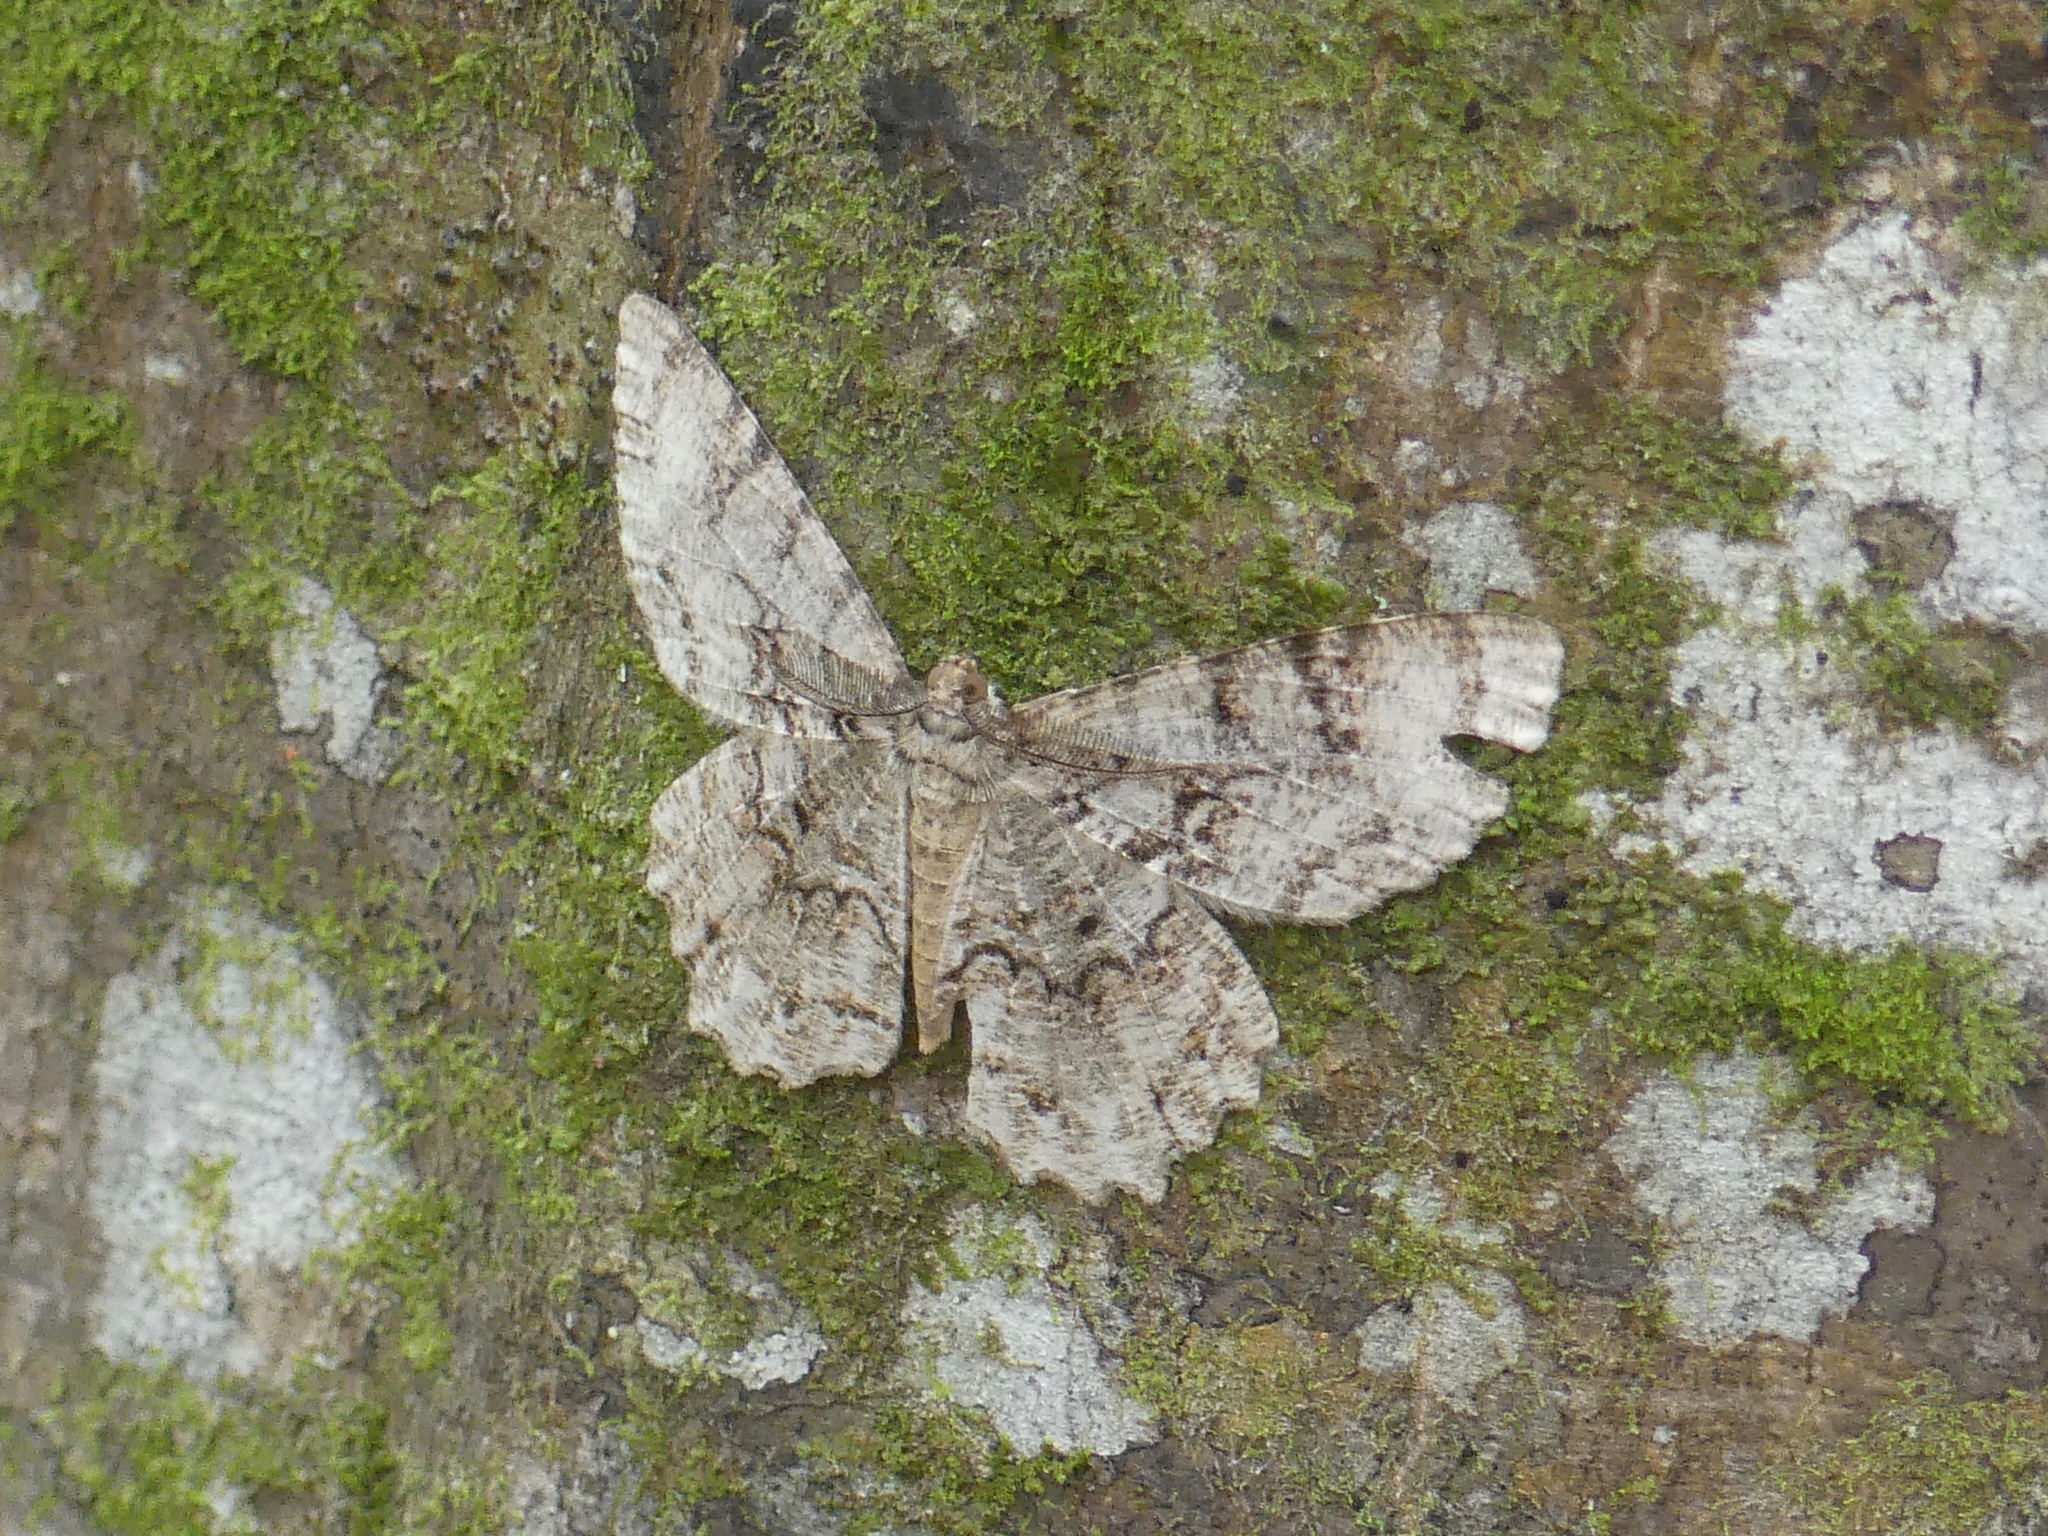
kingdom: Animalia
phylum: Arthropoda
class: Insecta
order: Lepidoptera
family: Geometridae
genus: Epimecis
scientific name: Epimecis hortaria
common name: Tulip-tree beauty
